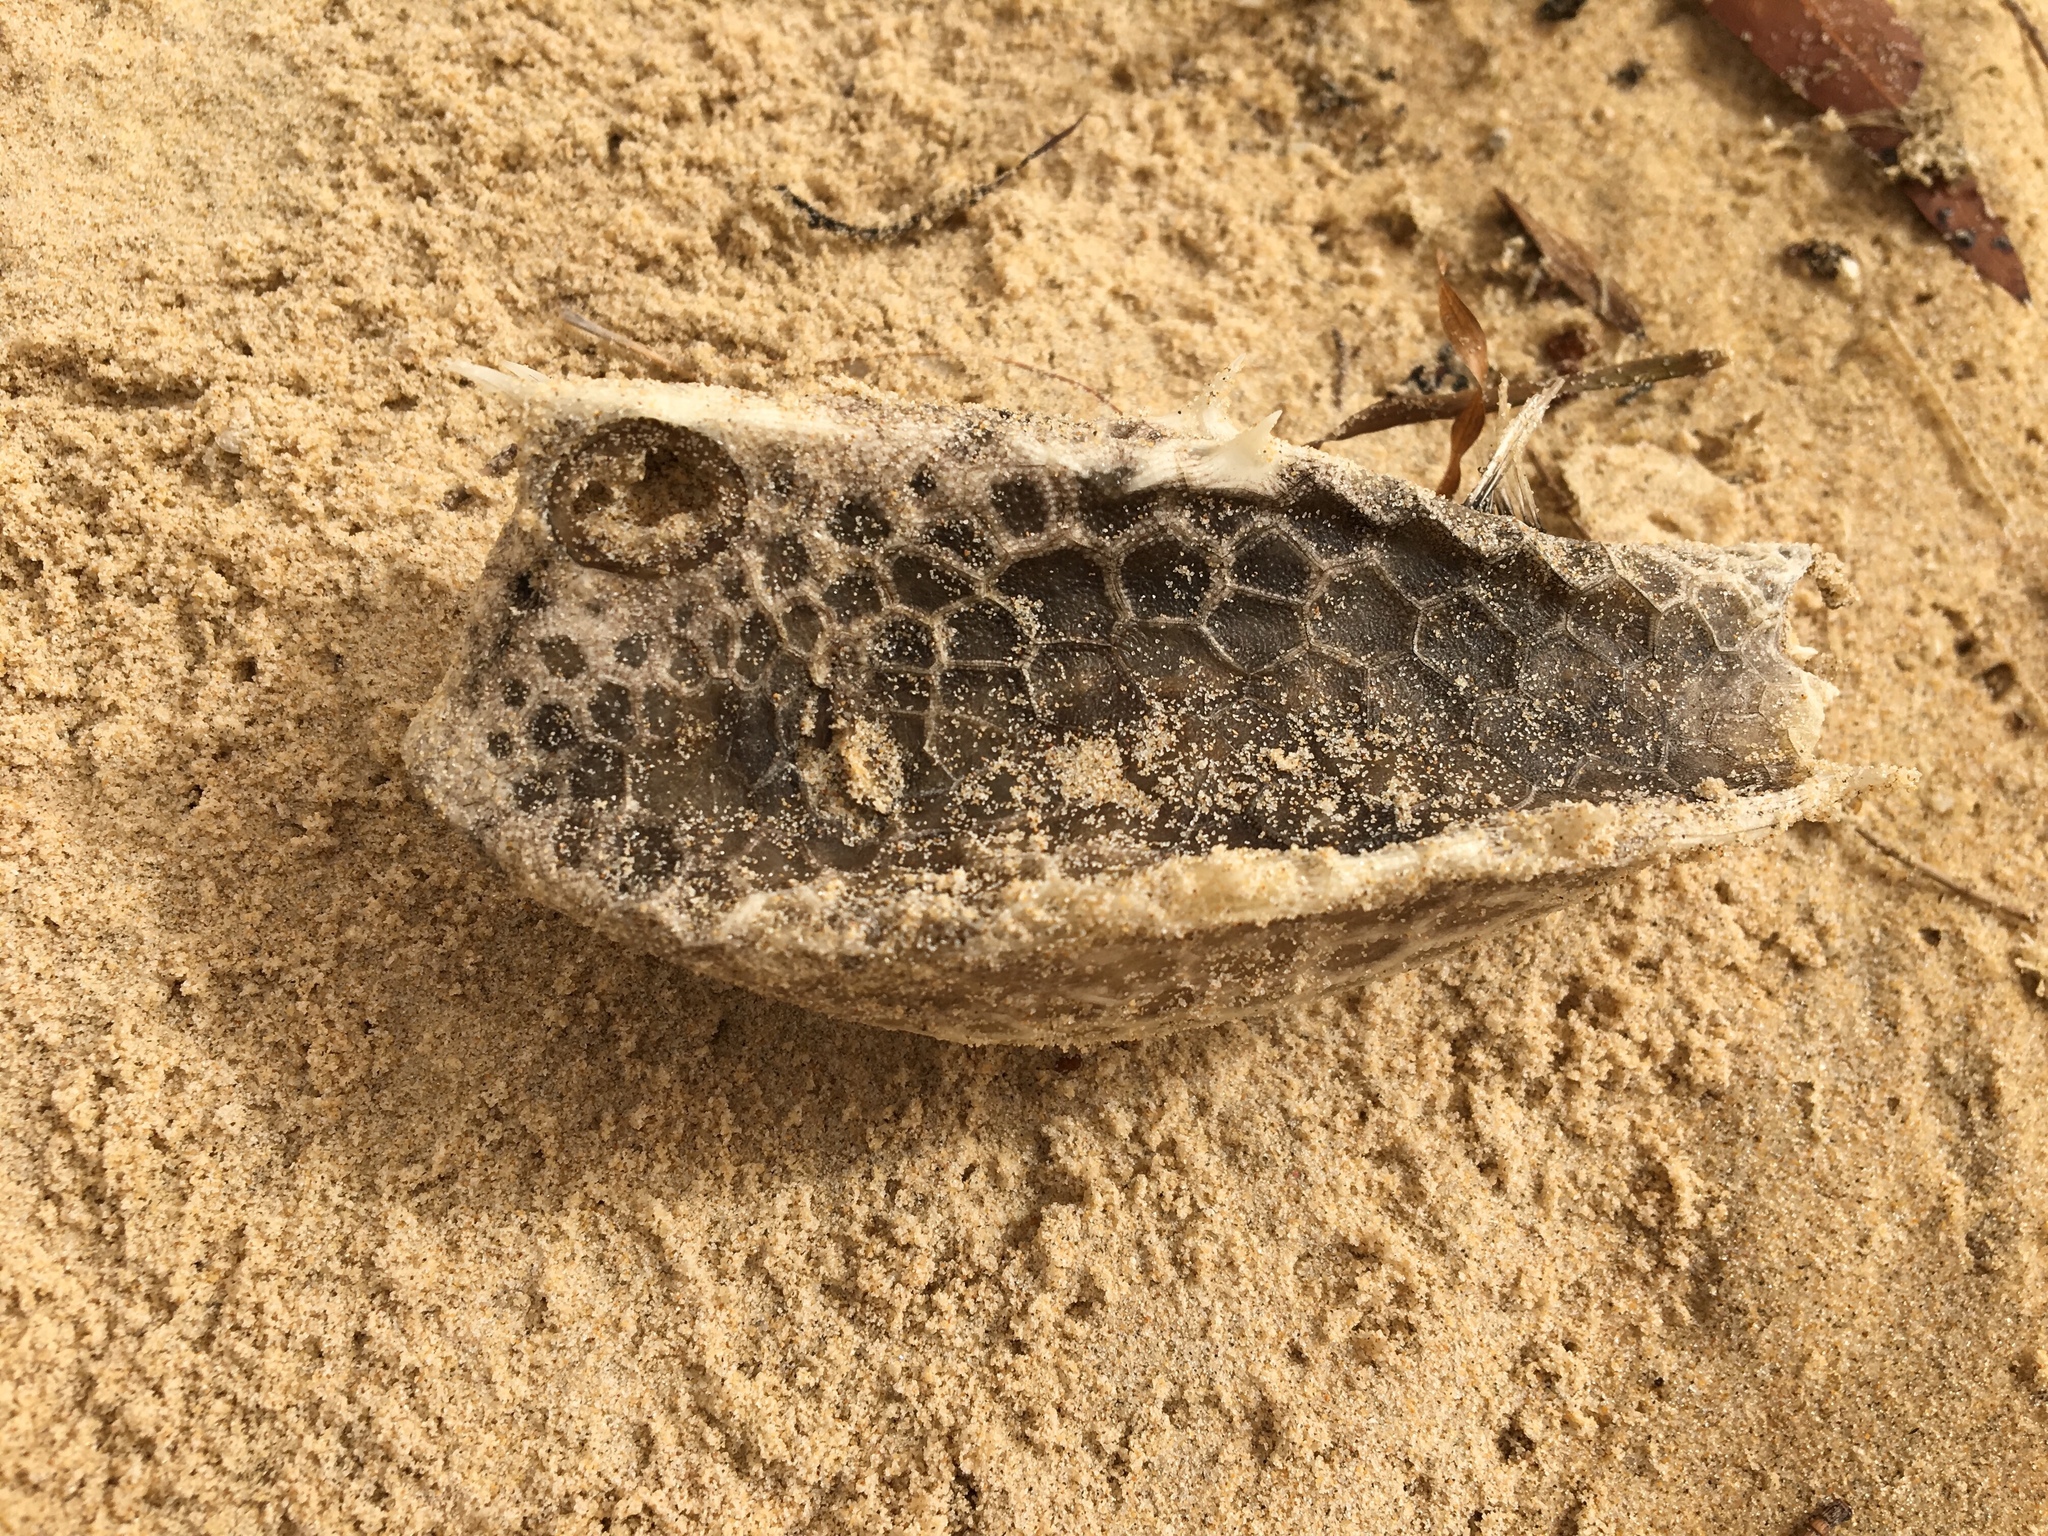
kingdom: Animalia
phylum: Chordata
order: Tetraodontiformes
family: Ostraciidae
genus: Lactoria
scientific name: Lactoria diaphana
